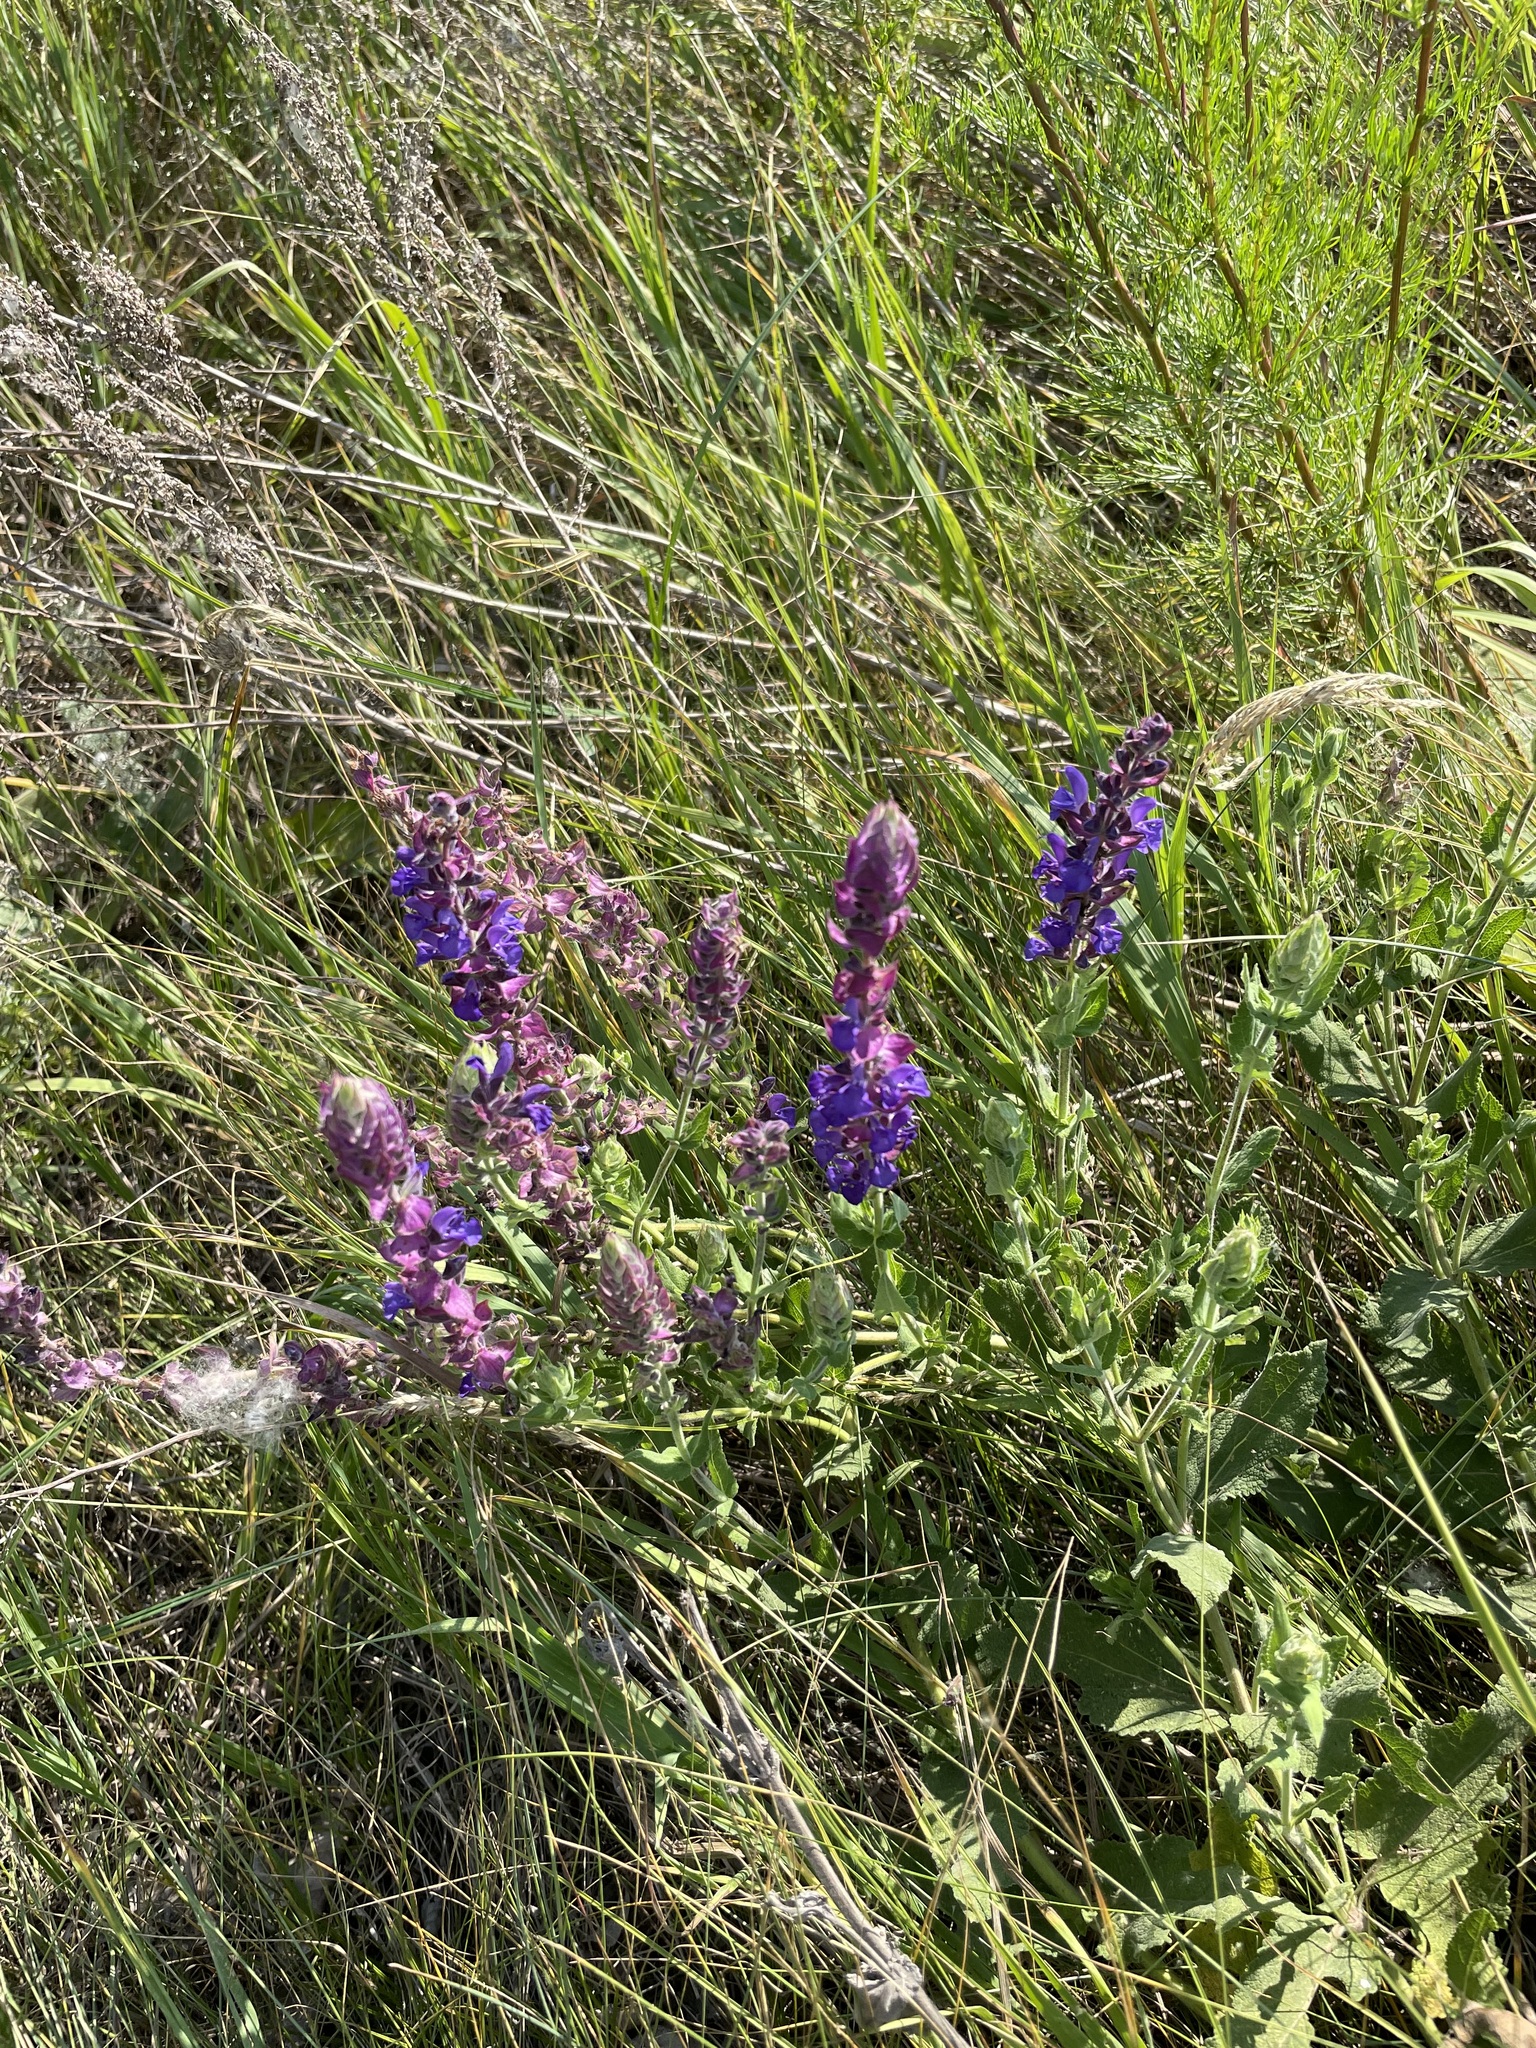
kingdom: Plantae
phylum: Tracheophyta
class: Magnoliopsida
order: Lamiales
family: Lamiaceae
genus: Salvia
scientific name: Salvia nemorosa
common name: Balkan clary
